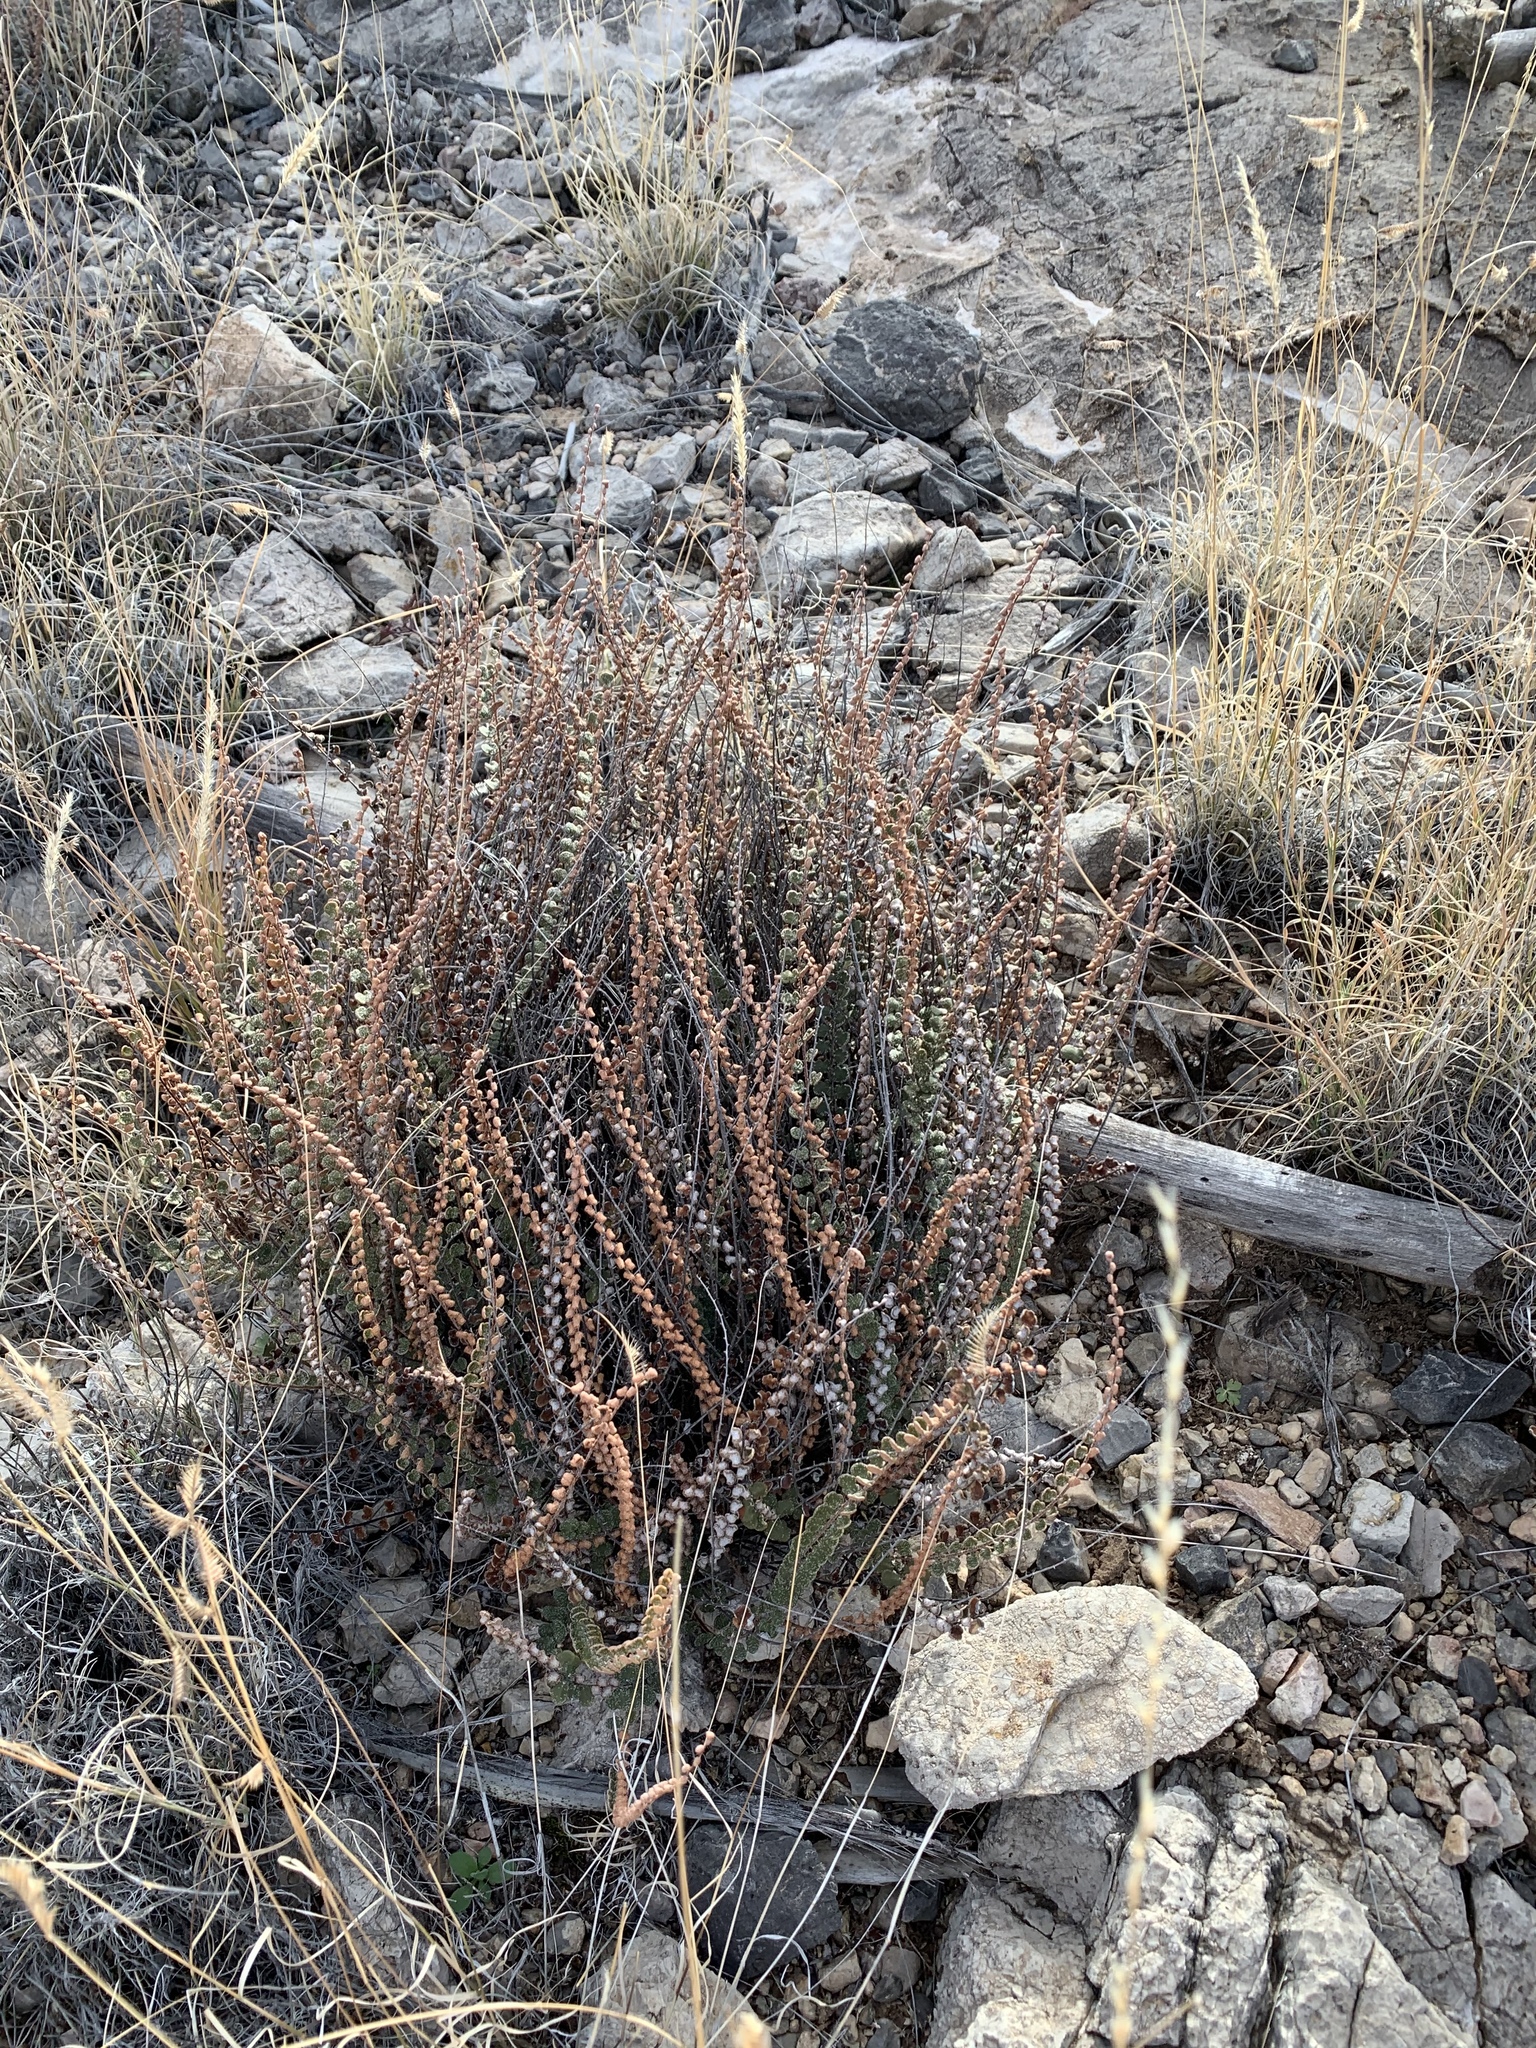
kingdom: Plantae
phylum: Tracheophyta
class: Polypodiopsida
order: Polypodiales
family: Pteridaceae
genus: Astrolepis
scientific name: Astrolepis cochisensis
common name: Scaly cloak fern
